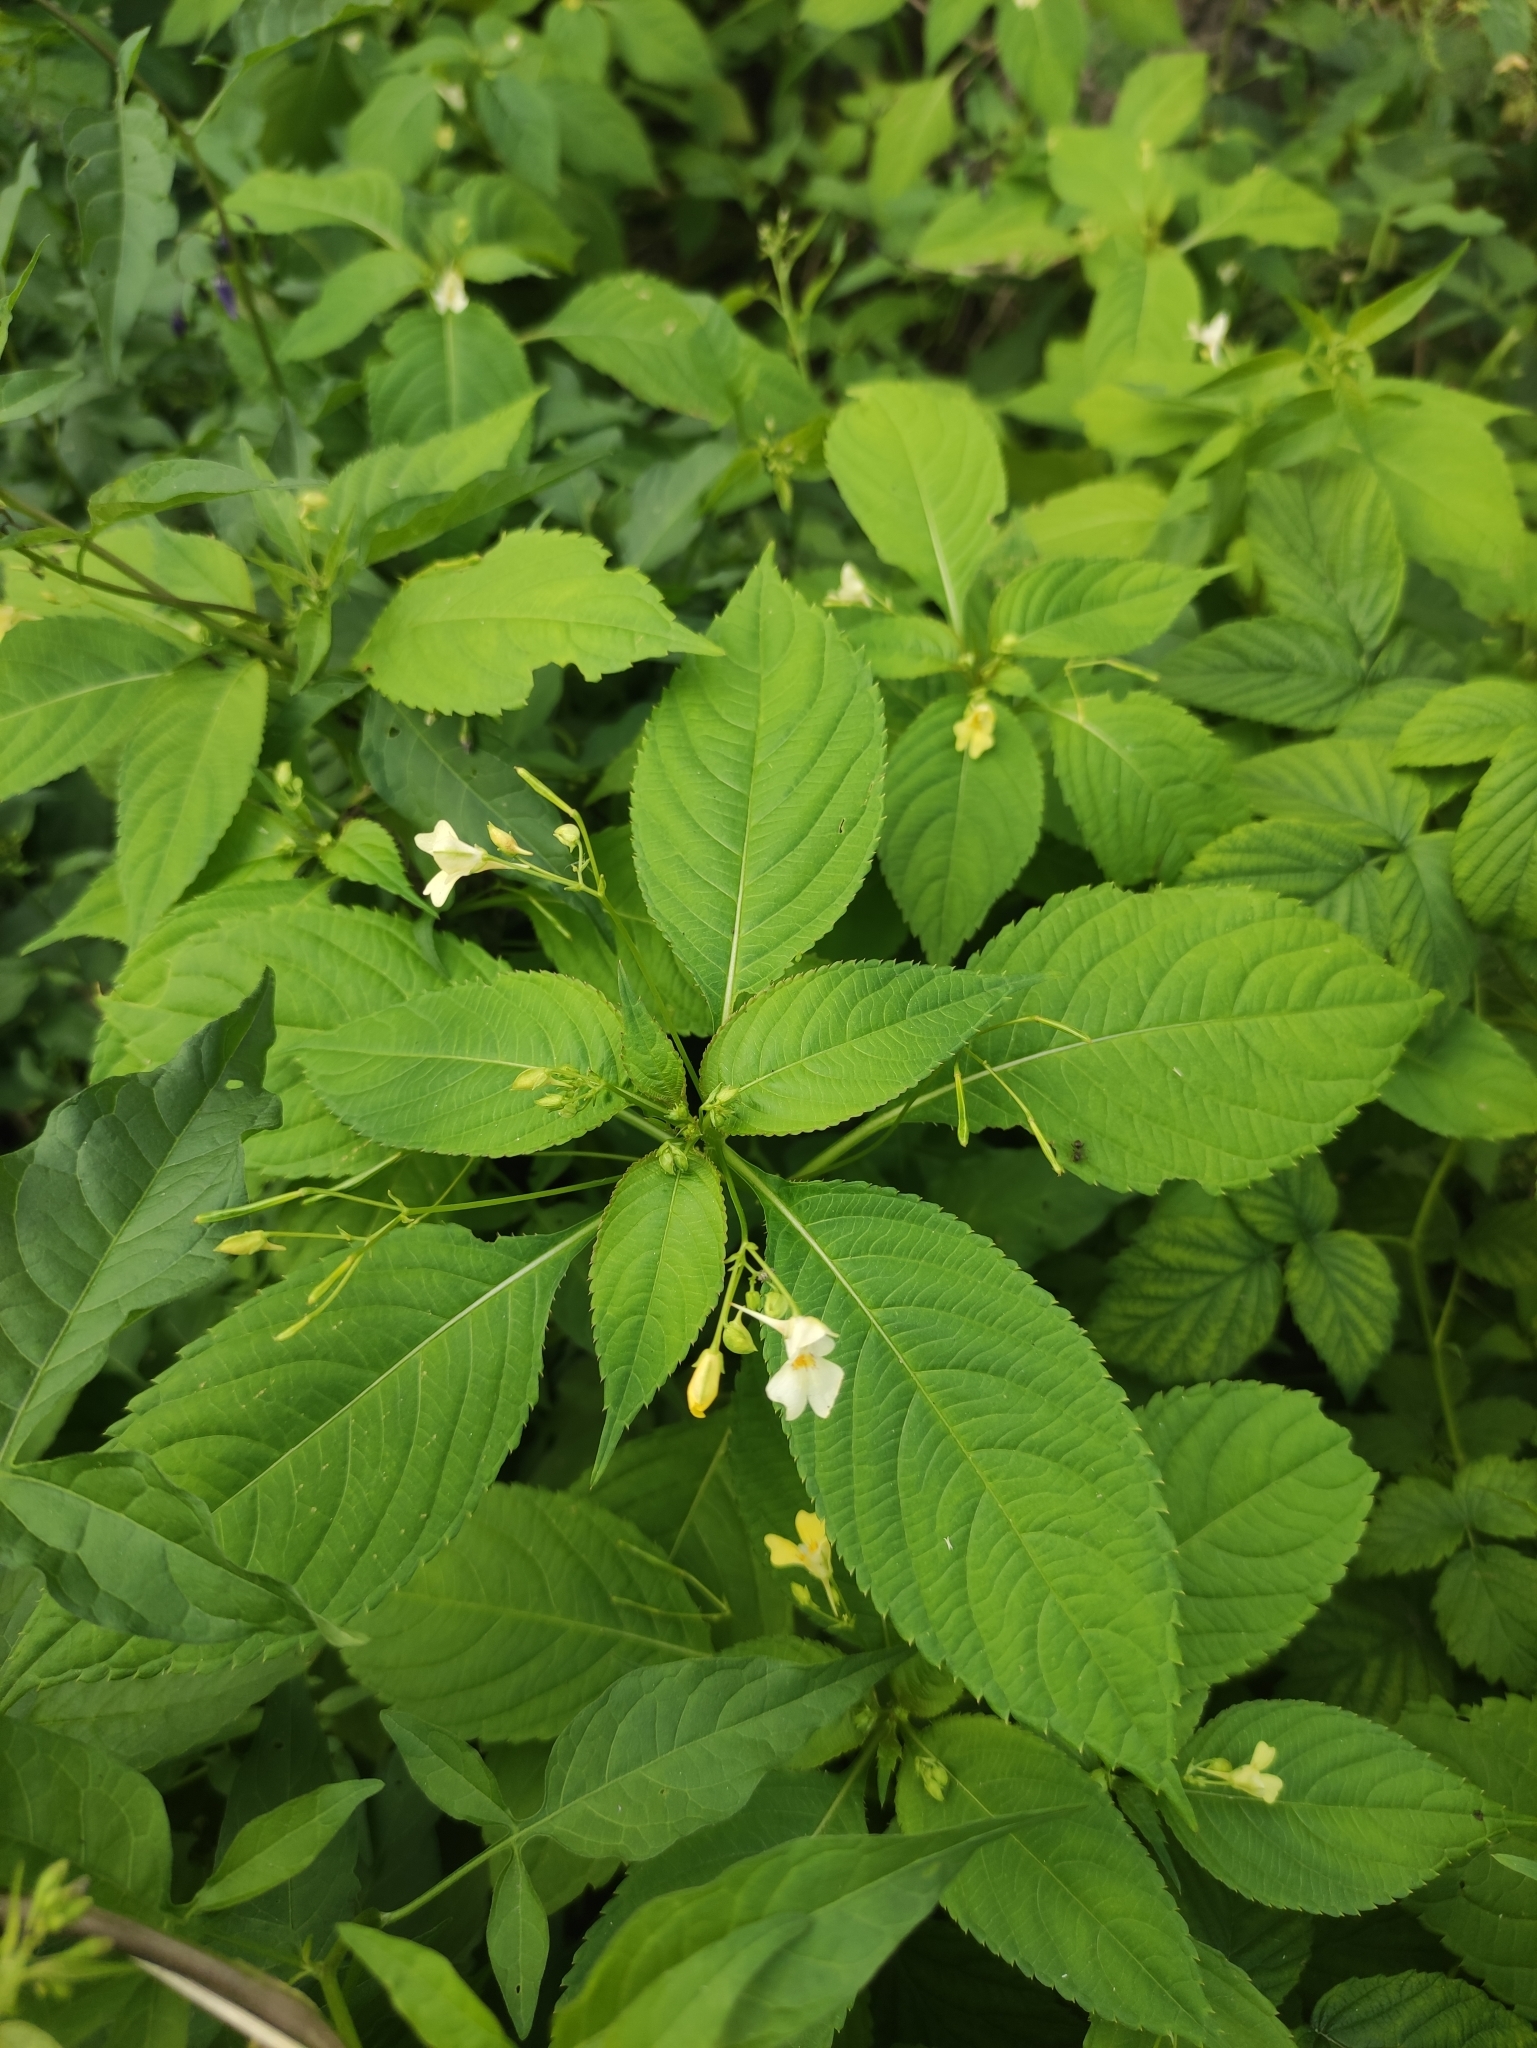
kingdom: Plantae
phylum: Tracheophyta
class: Magnoliopsida
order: Ericales
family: Balsaminaceae
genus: Impatiens
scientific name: Impatiens parviflora
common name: Small balsam
